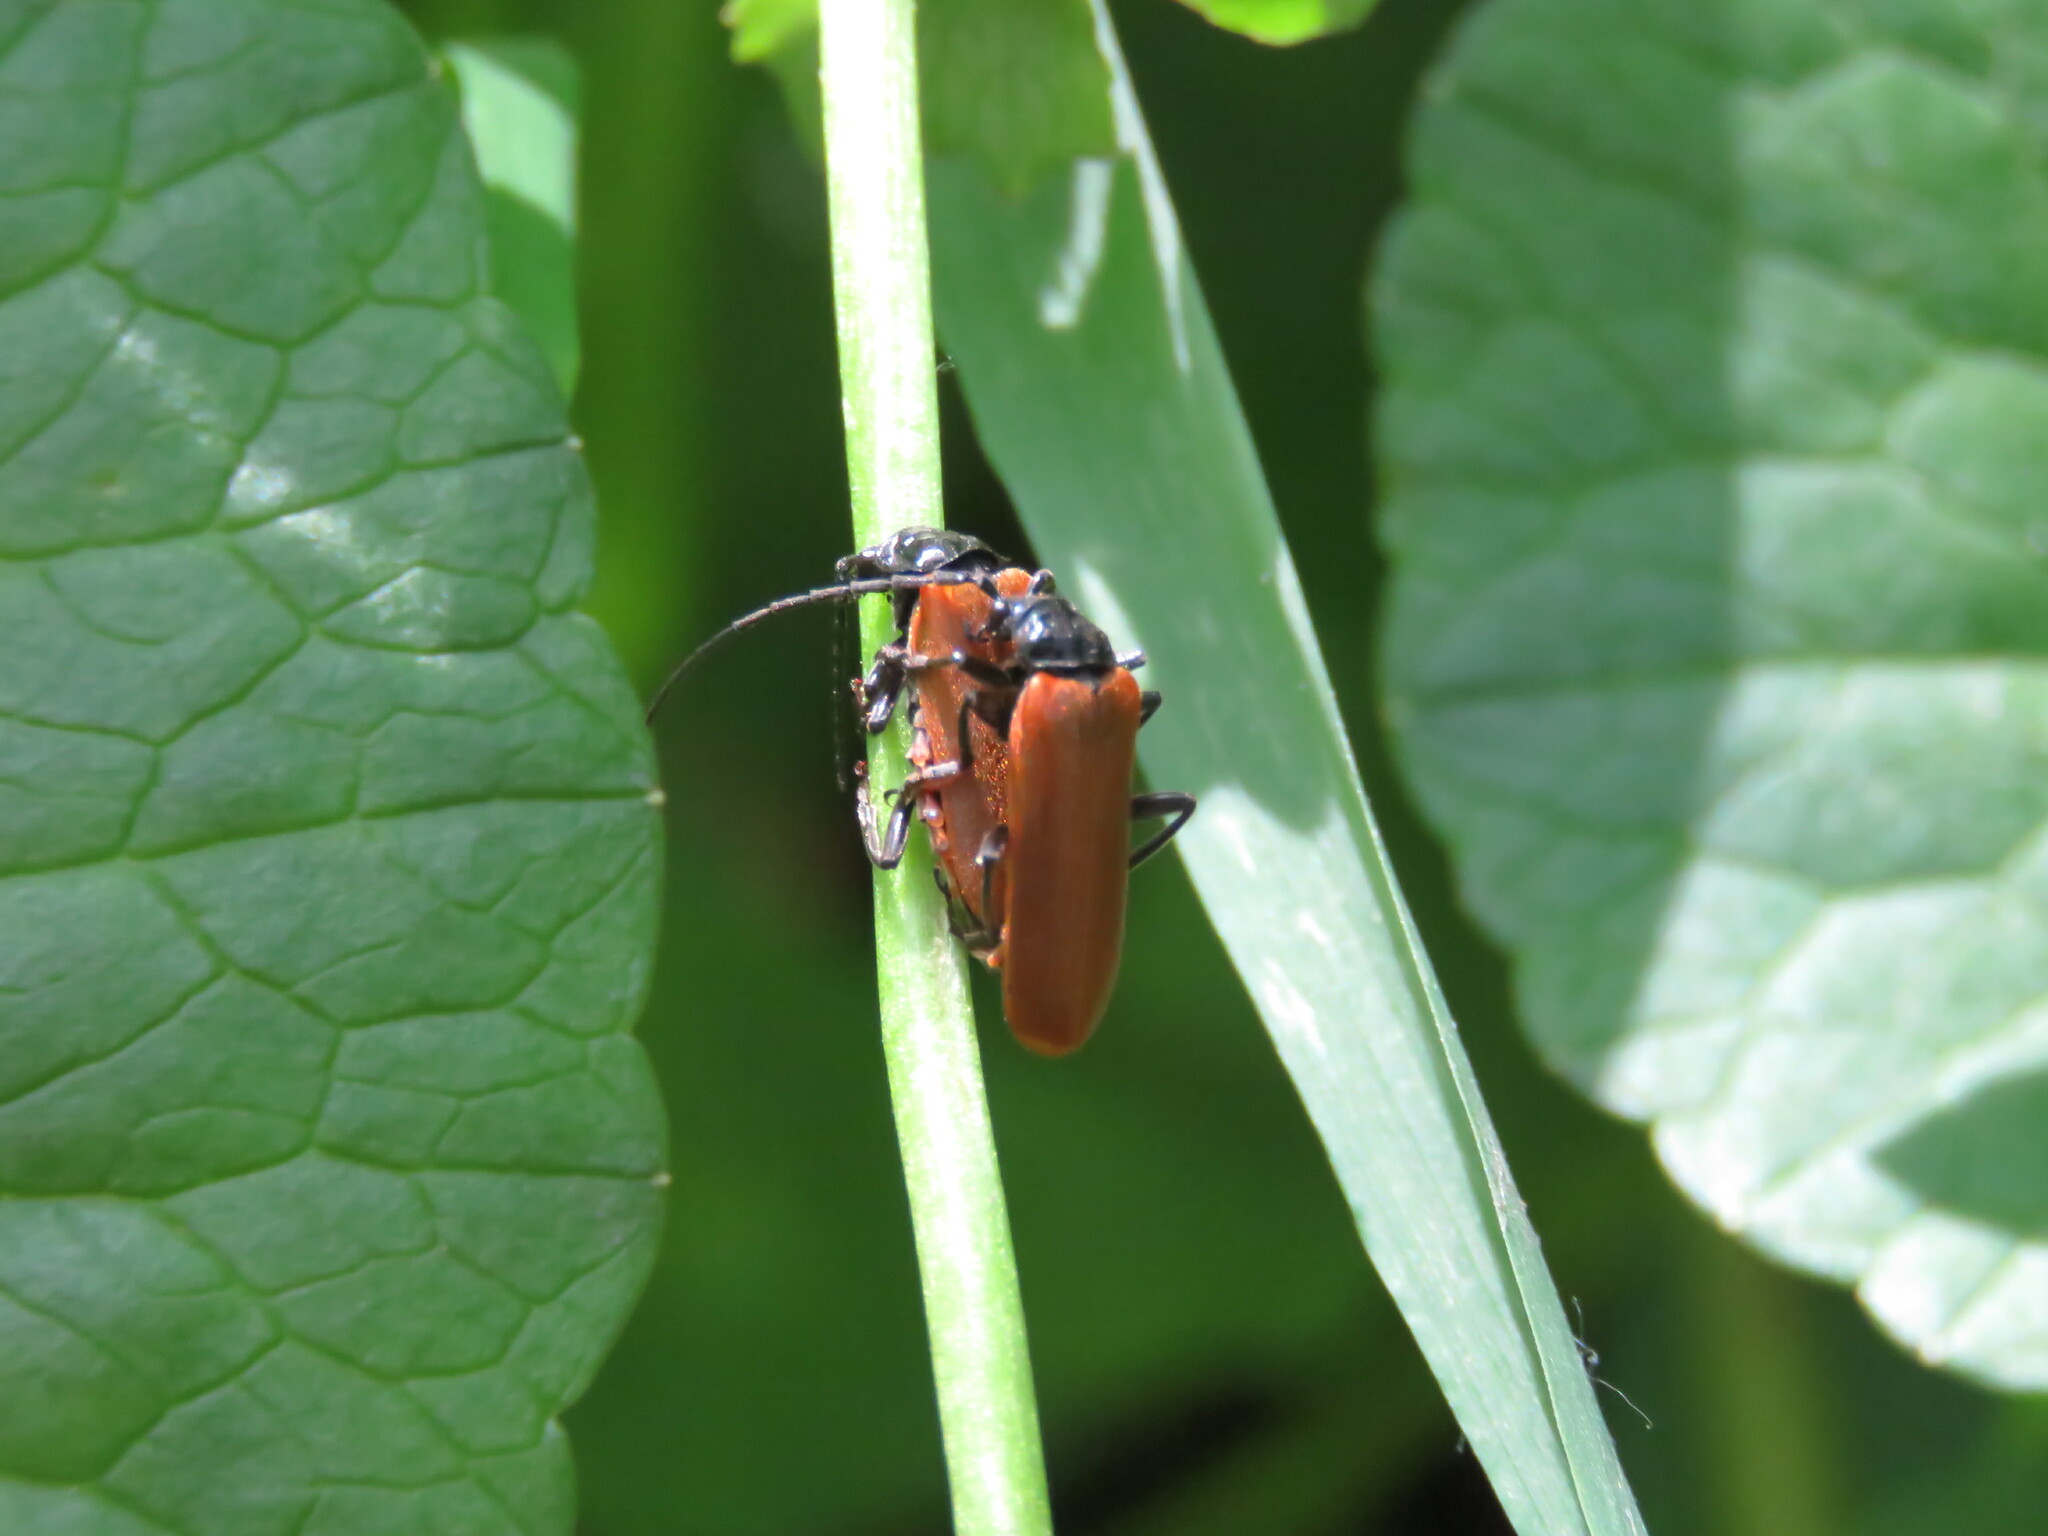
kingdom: Animalia
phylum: Arthropoda
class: Insecta
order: Coleoptera
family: Cantharidae
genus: Cantharis
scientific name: Cantharis palliata
